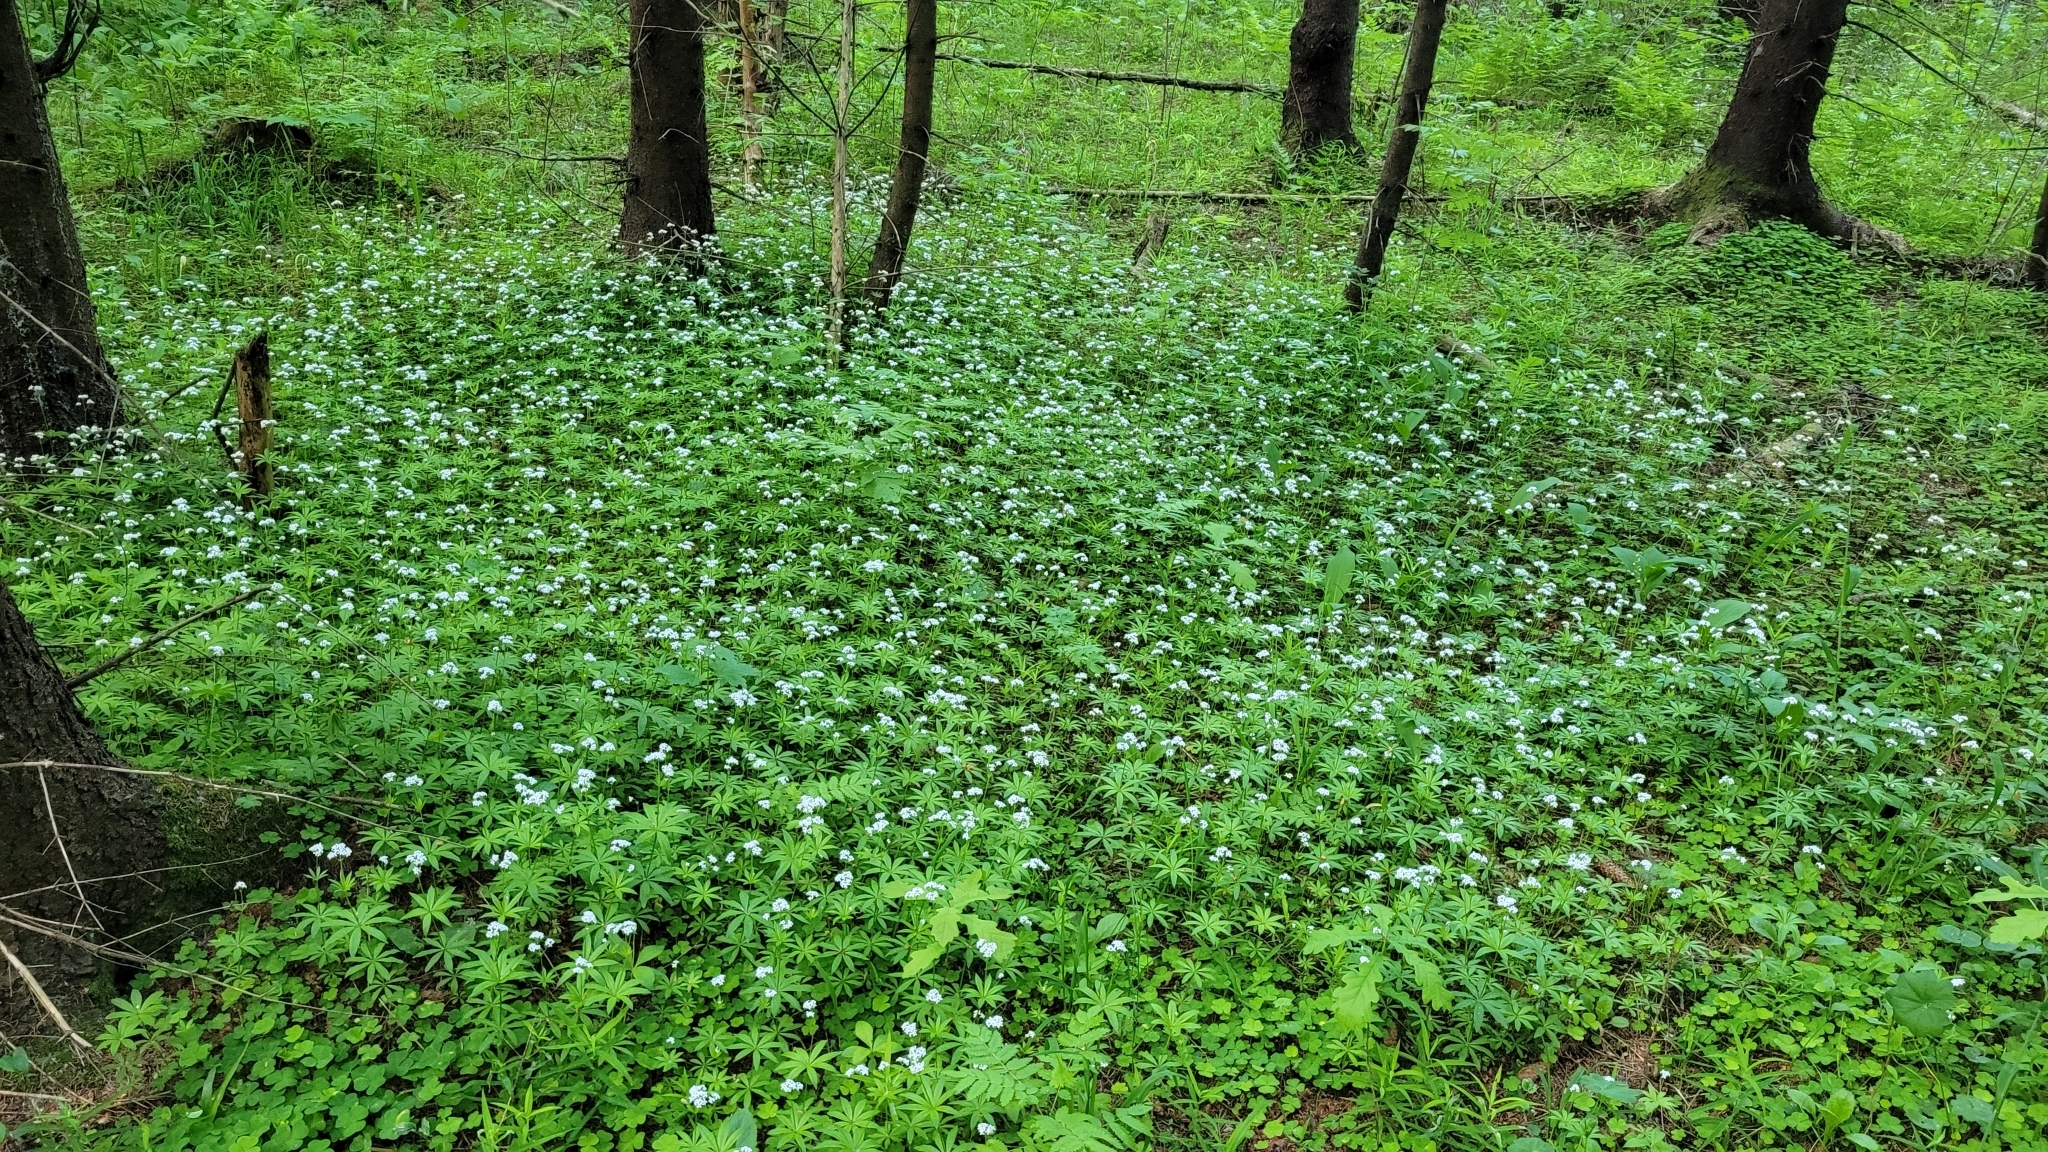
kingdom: Plantae
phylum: Tracheophyta
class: Magnoliopsida
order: Gentianales
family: Rubiaceae
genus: Galium
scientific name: Galium odoratum
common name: Sweet woodruff
